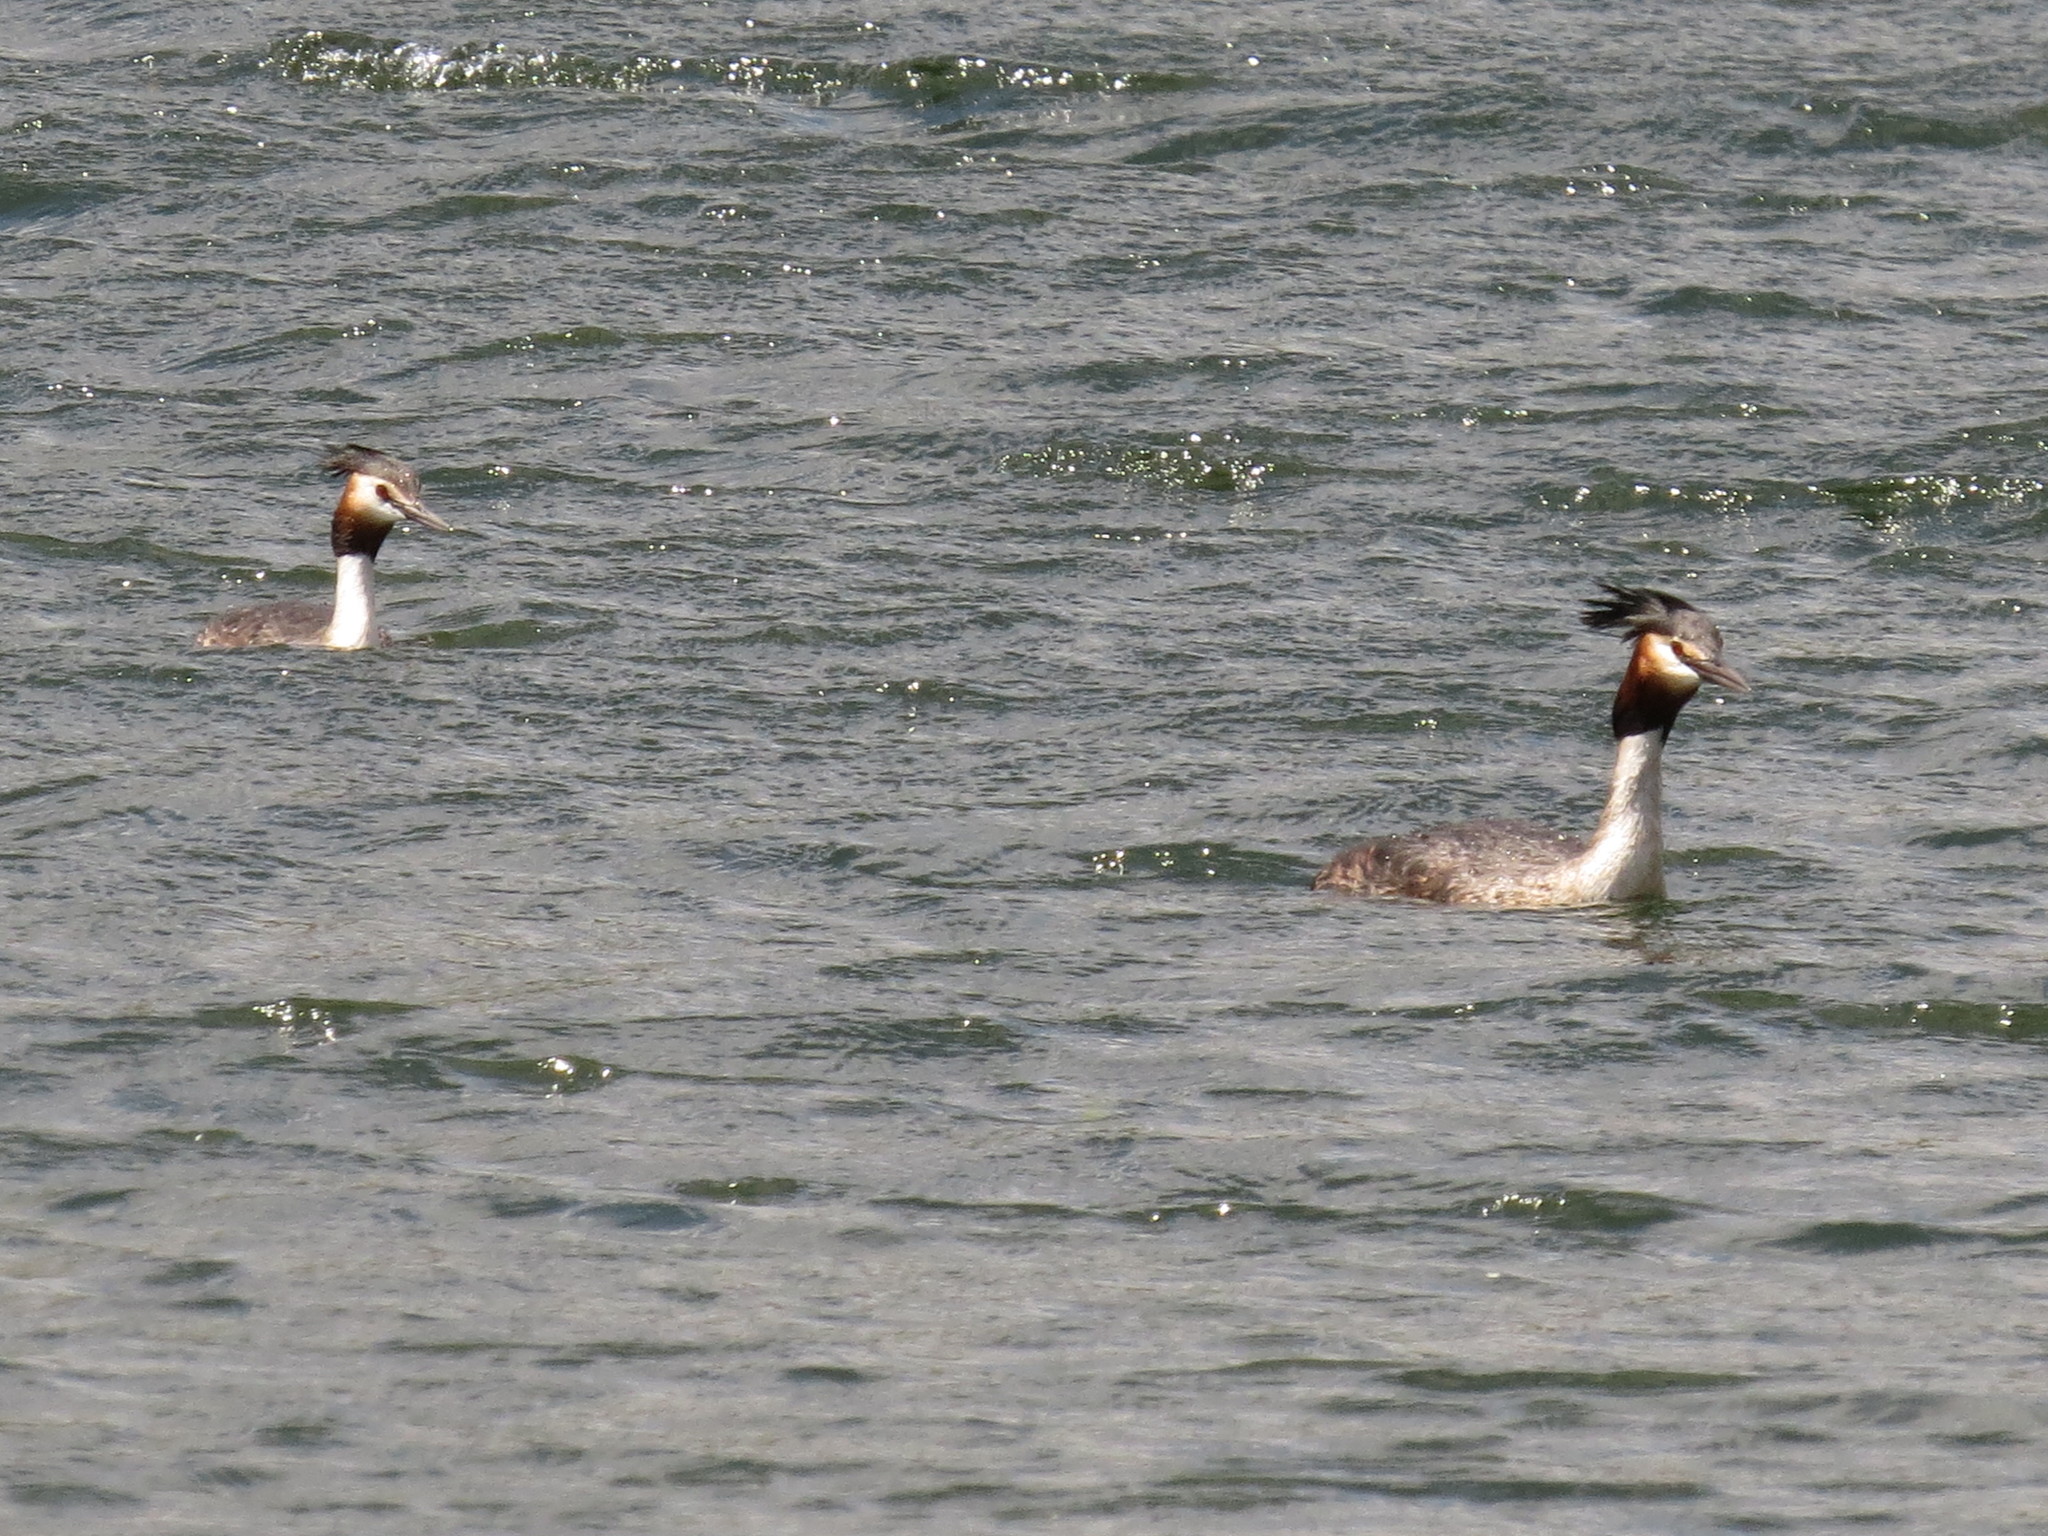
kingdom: Animalia
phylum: Chordata
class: Aves
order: Podicipediformes
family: Podicipedidae
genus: Podiceps
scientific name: Podiceps cristatus
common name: Great crested grebe
